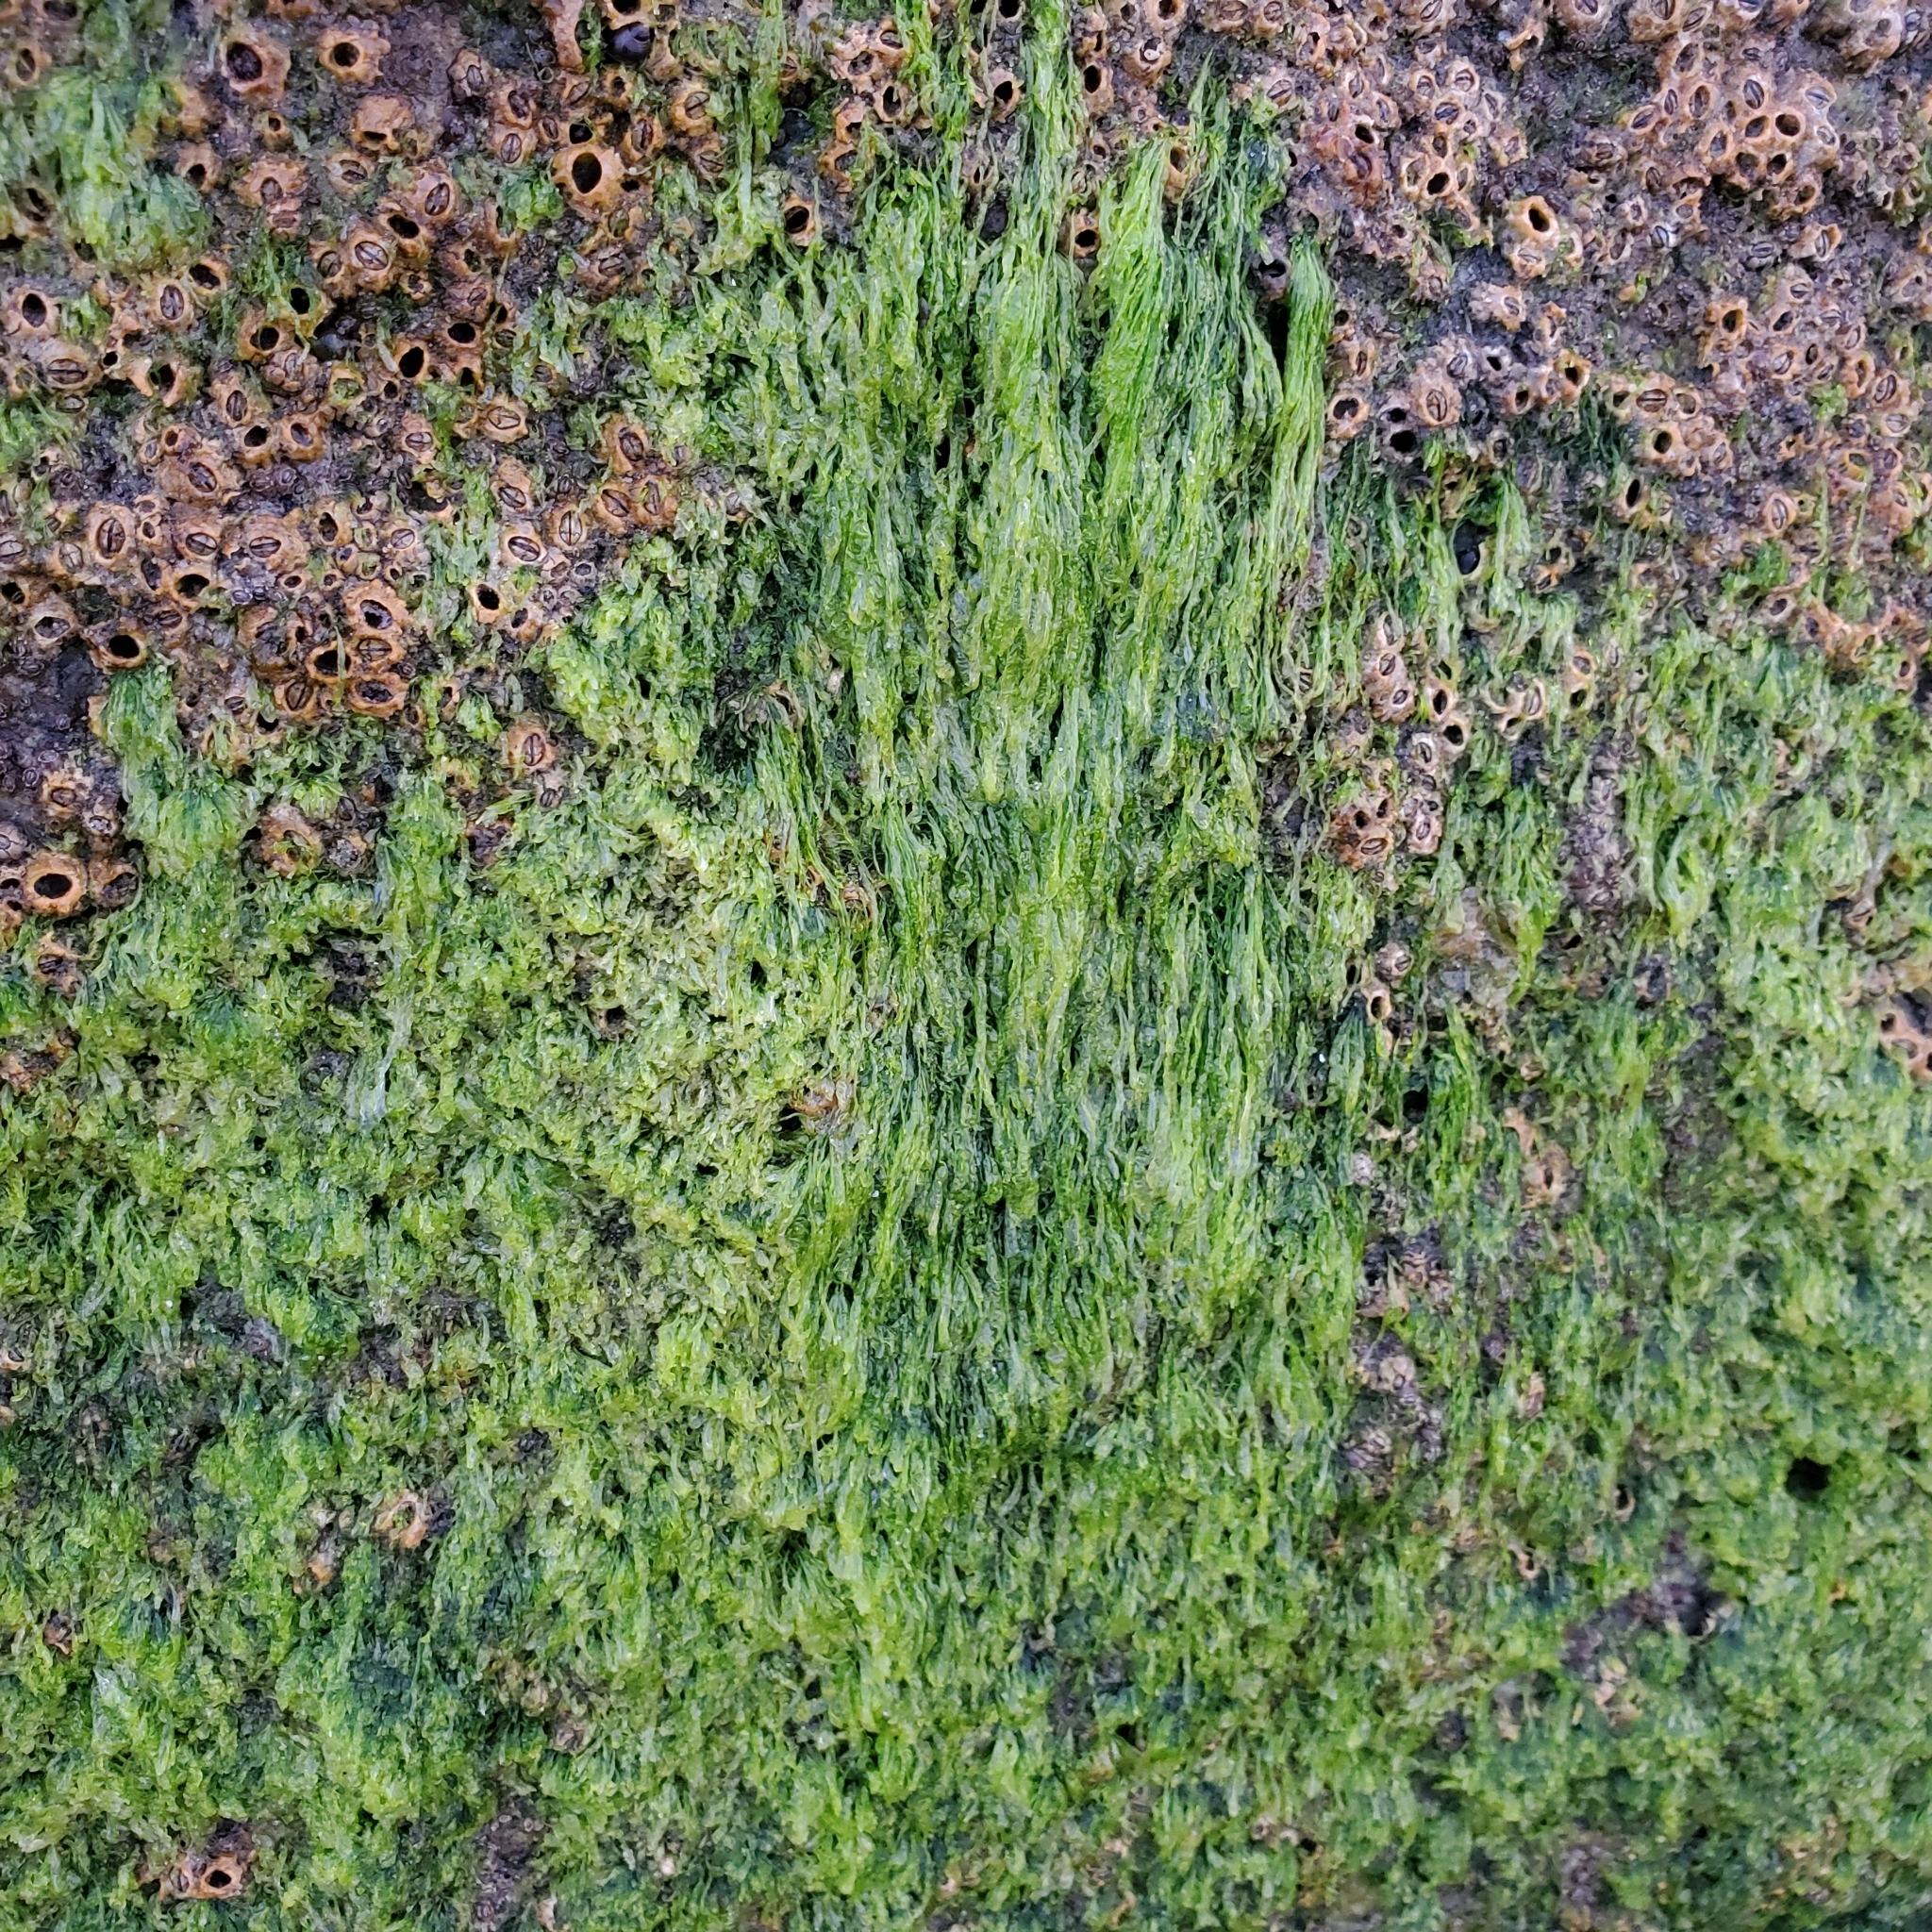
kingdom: Plantae
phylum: Chlorophyta
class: Ulvophyceae
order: Ulvales
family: Ulvaceae
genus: Ulva
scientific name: Ulva intestinalis
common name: Gut weed
